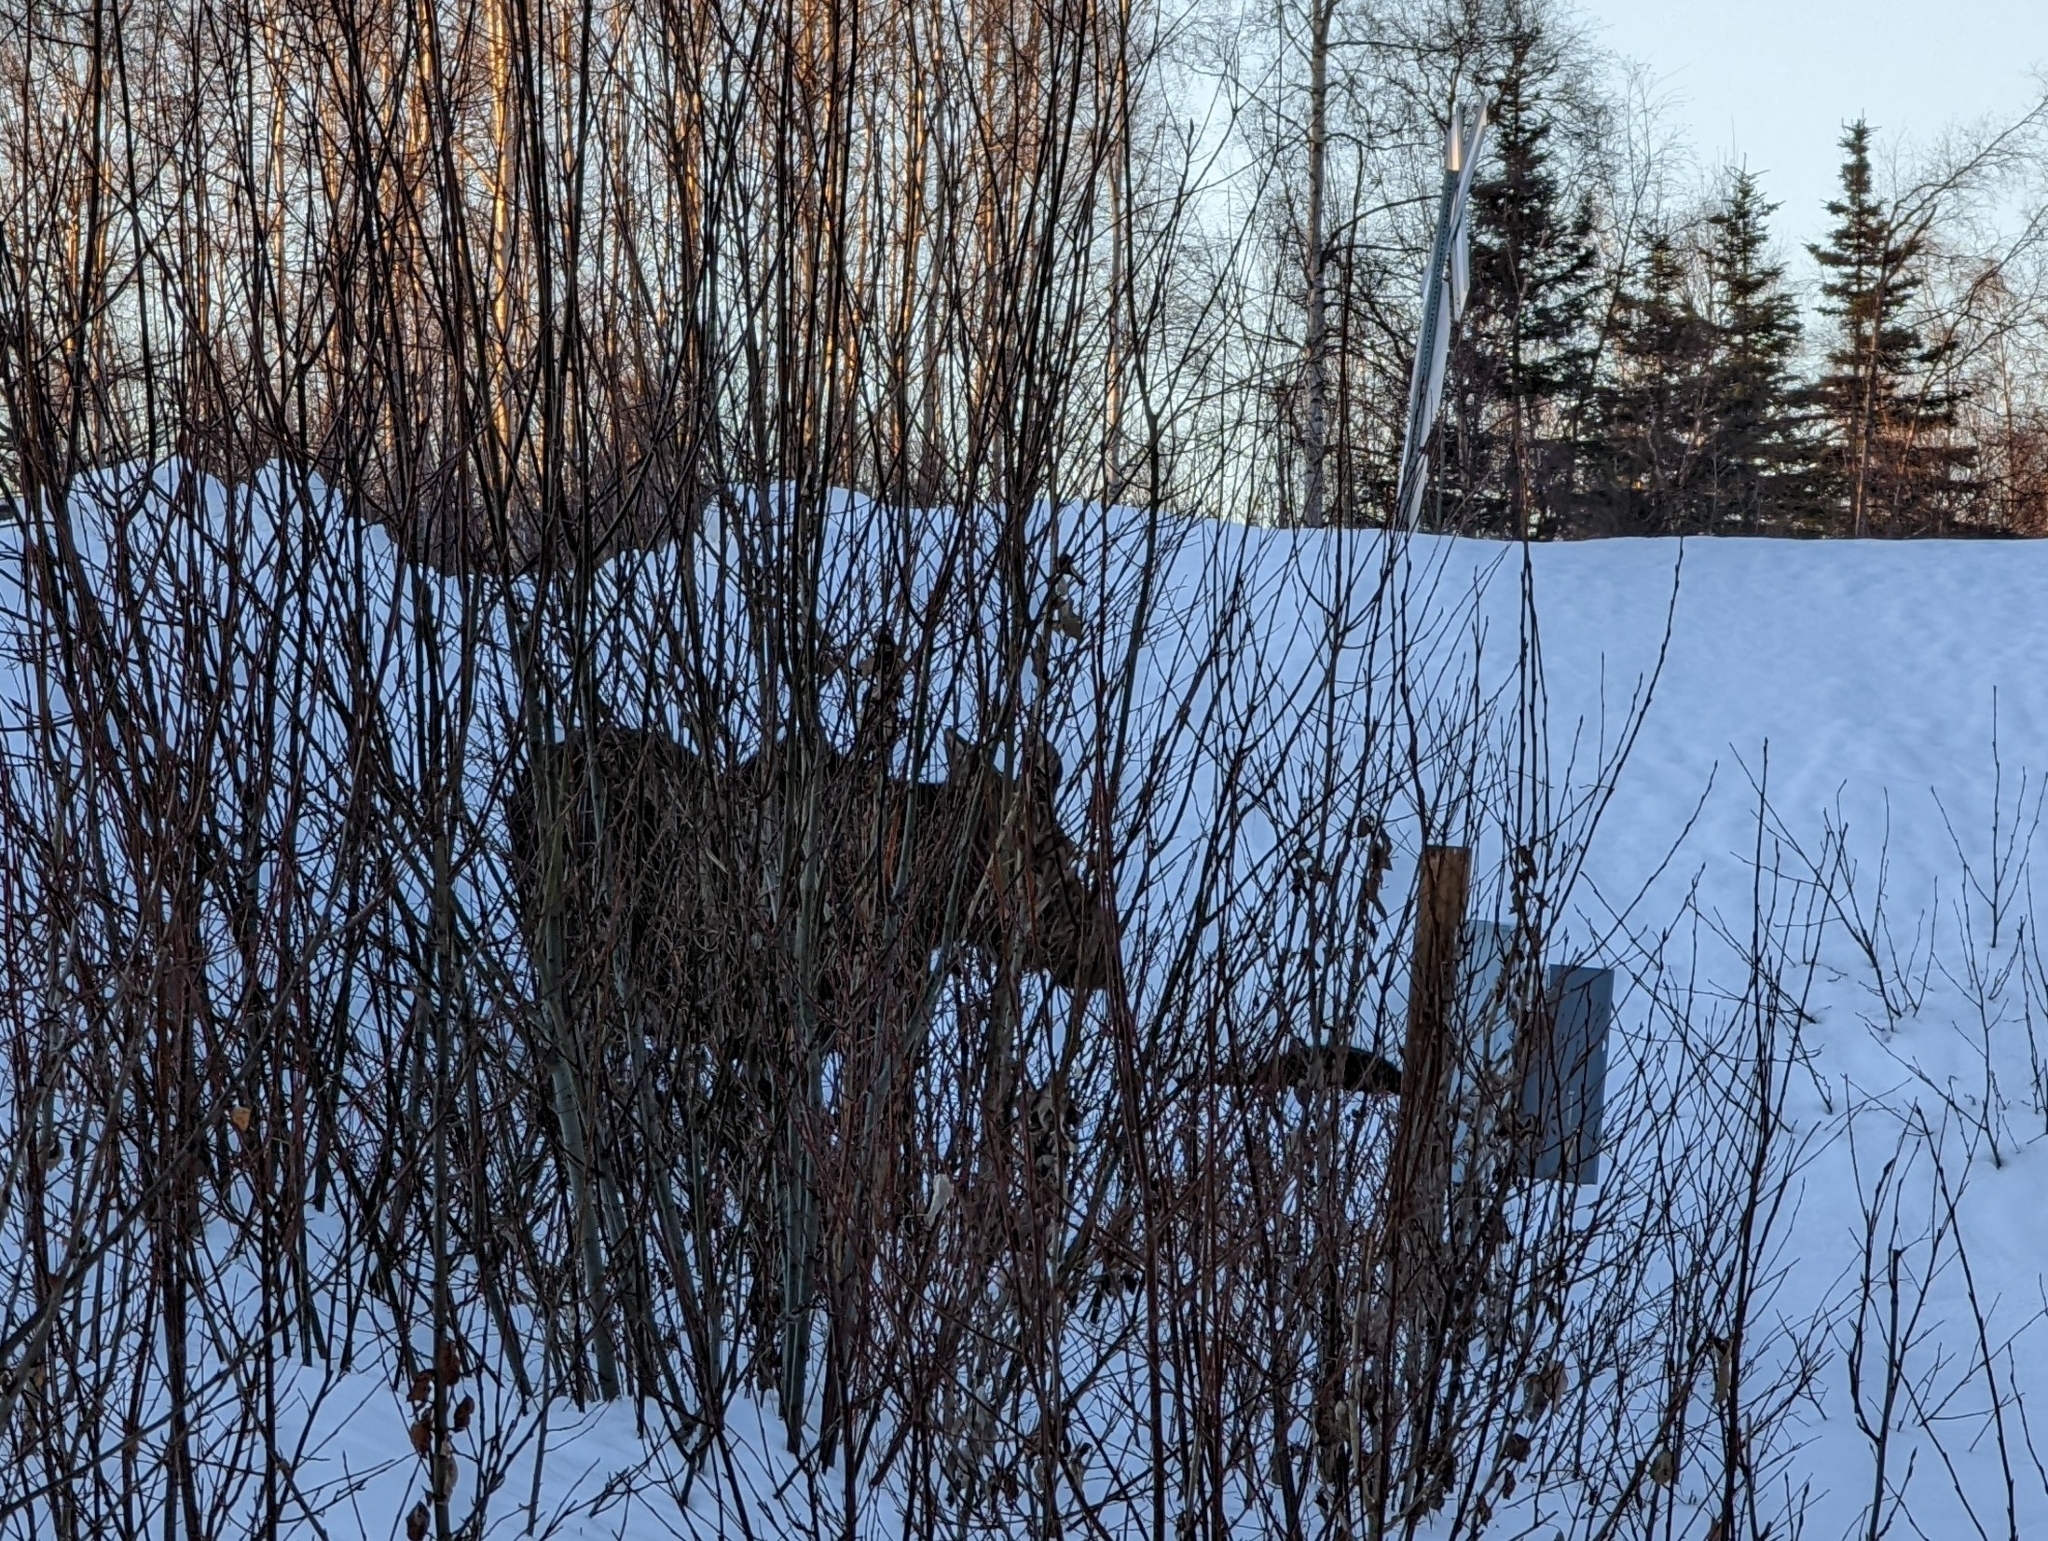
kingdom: Animalia
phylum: Chordata
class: Mammalia
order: Artiodactyla
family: Cervidae
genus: Alces
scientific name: Alces alces
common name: Moose
